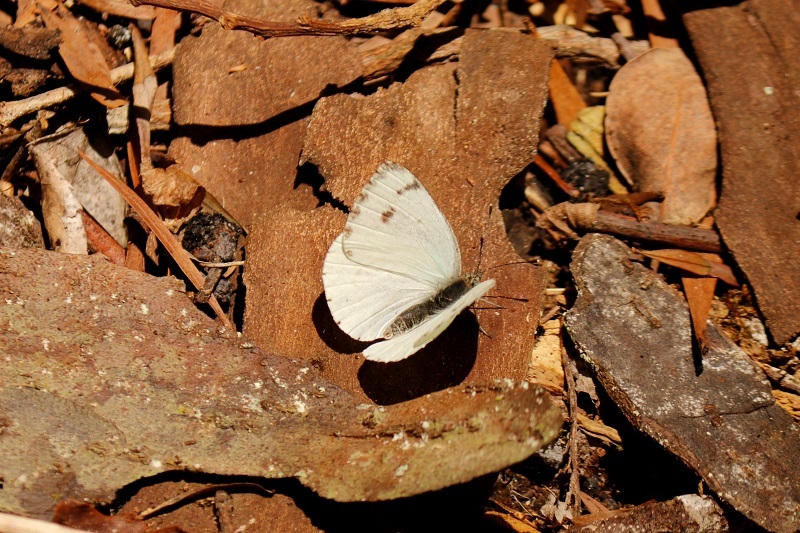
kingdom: Animalia
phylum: Arthropoda
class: Insecta
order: Lepidoptera
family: Pieridae
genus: Dixeia
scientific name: Dixeia charina
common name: African small white
